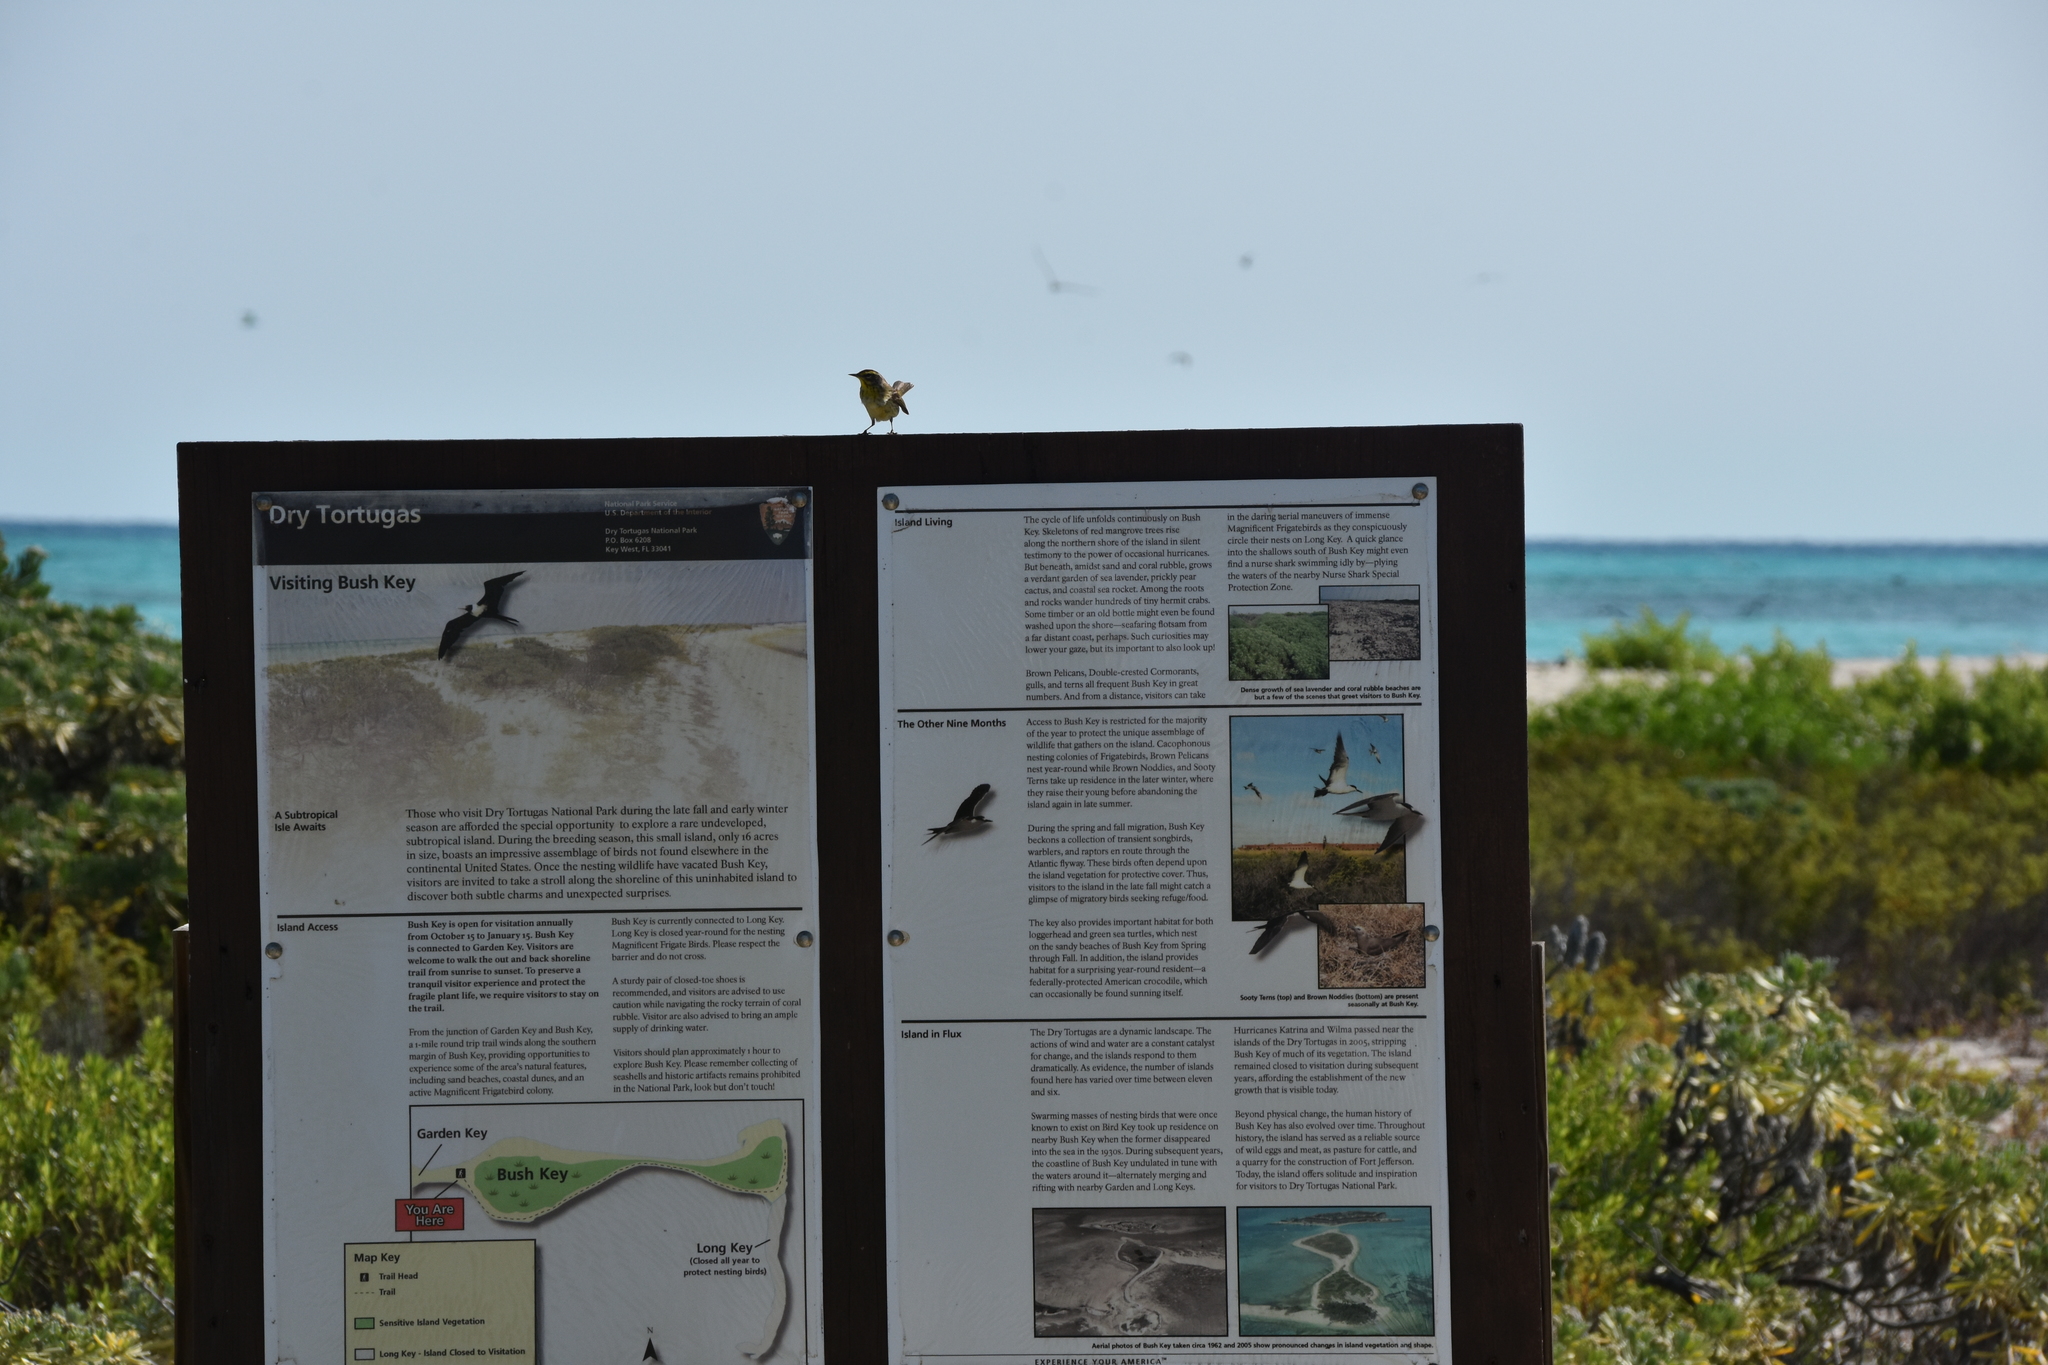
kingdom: Animalia
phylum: Chordata
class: Aves
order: Passeriformes
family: Parulidae
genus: Setophaga
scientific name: Setophaga palmarum
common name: Palm warbler
